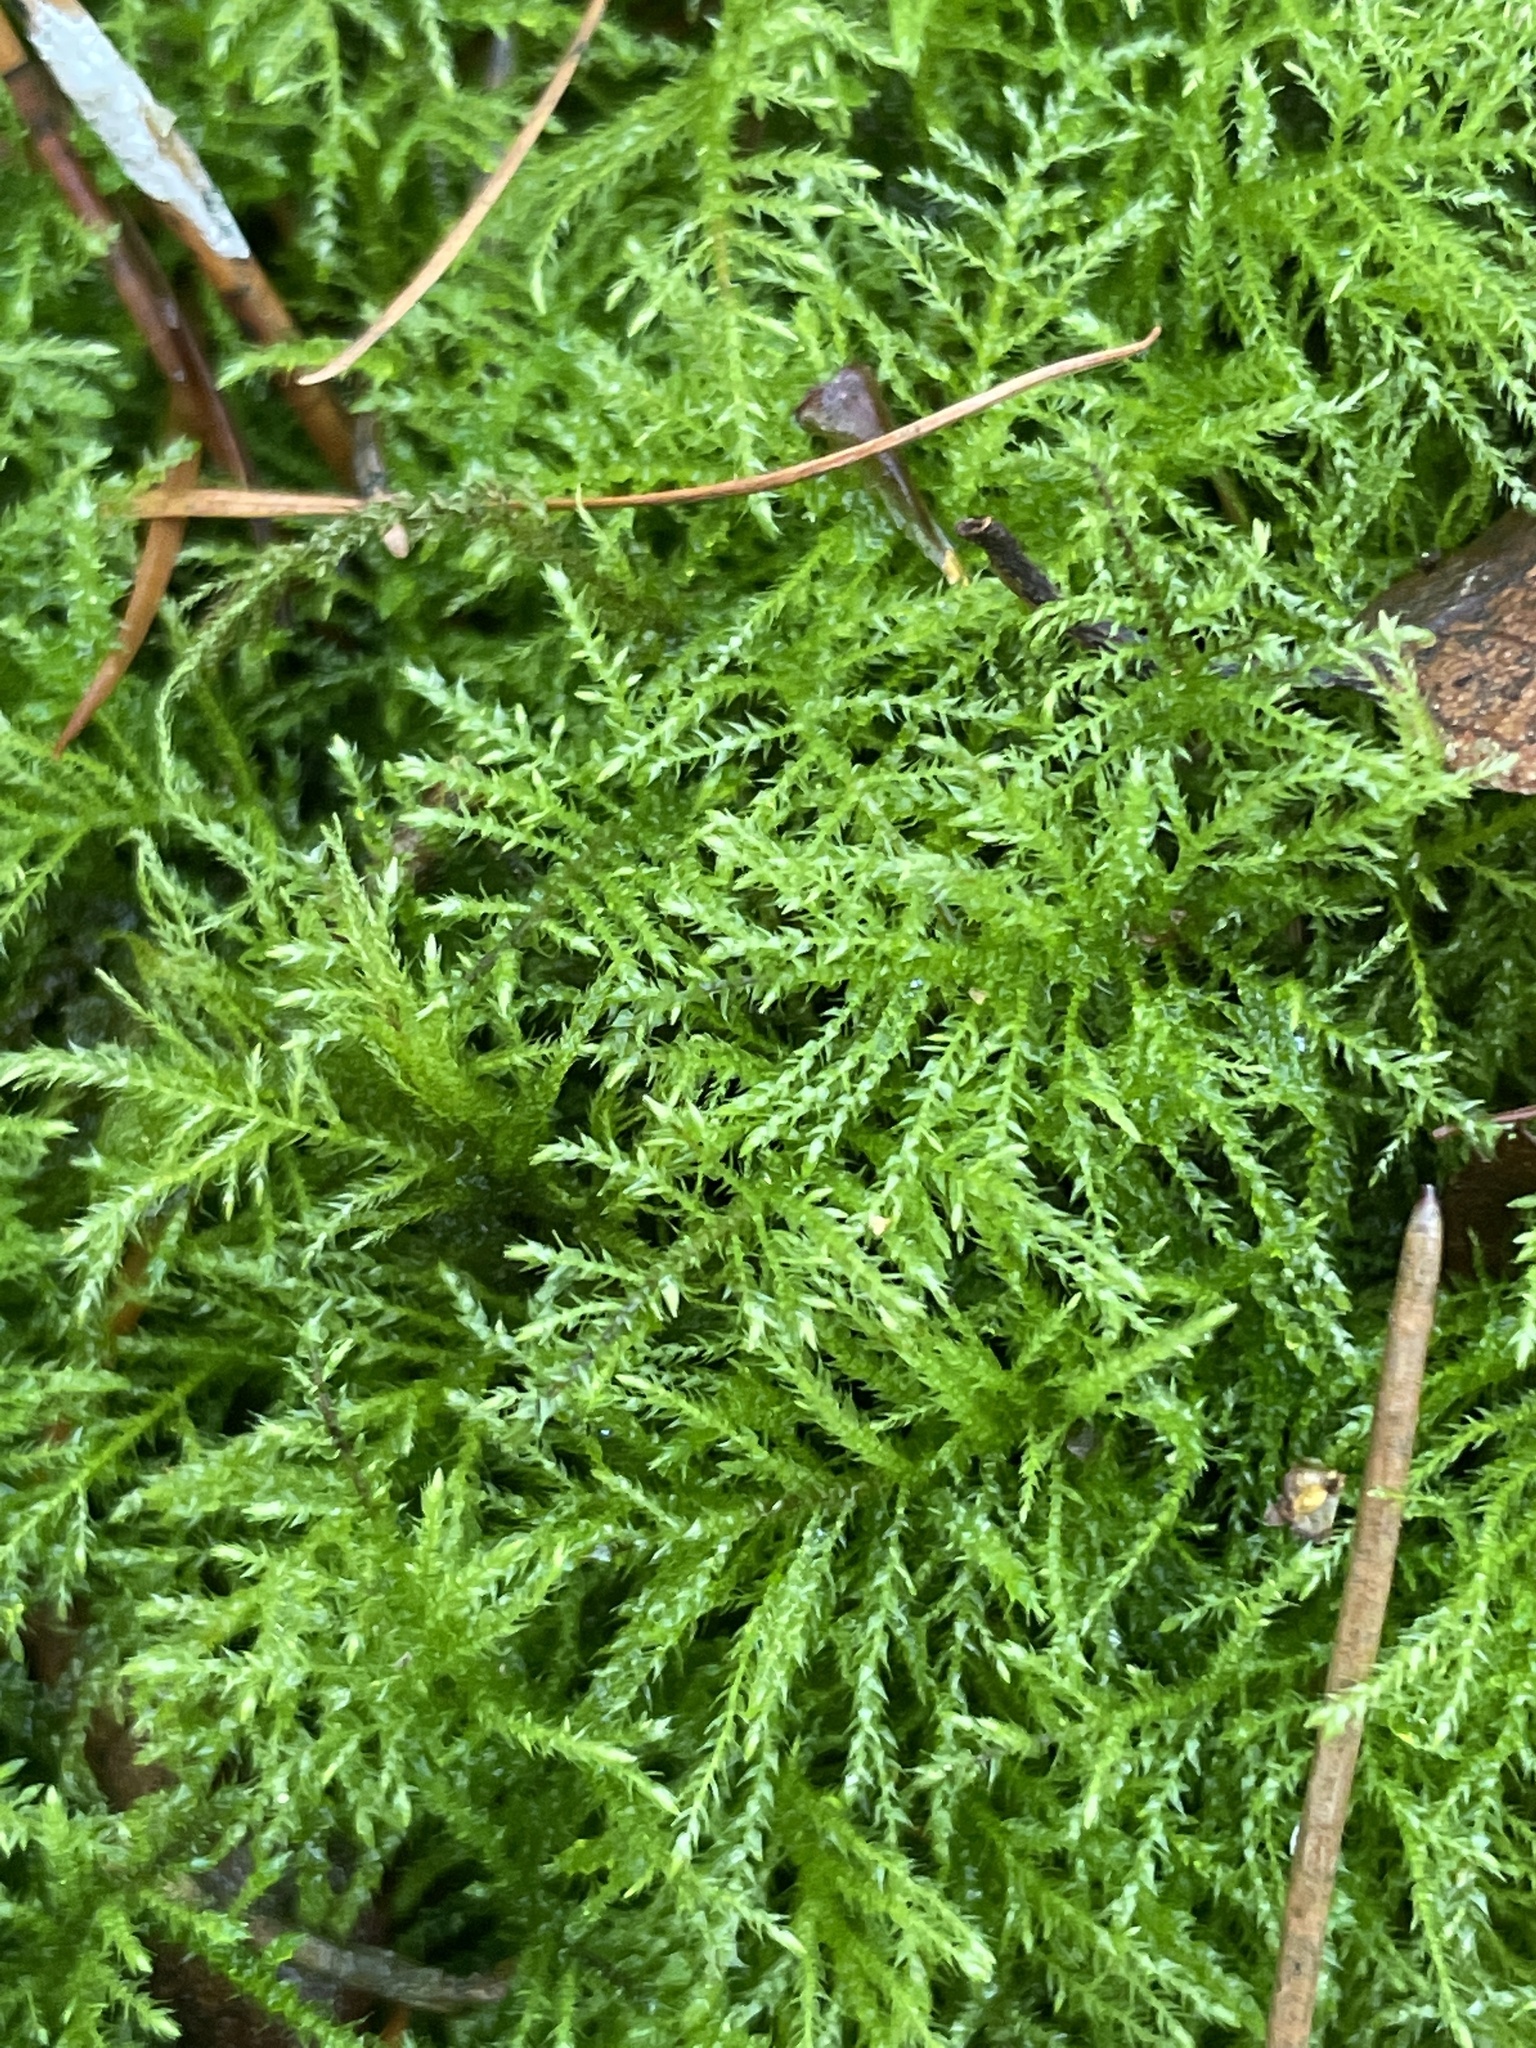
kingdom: Plantae
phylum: Bryophyta
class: Bryopsida
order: Hypnales
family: Brachytheciaceae
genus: Kindbergia
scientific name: Kindbergia praelonga
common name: Slender beaked moss
